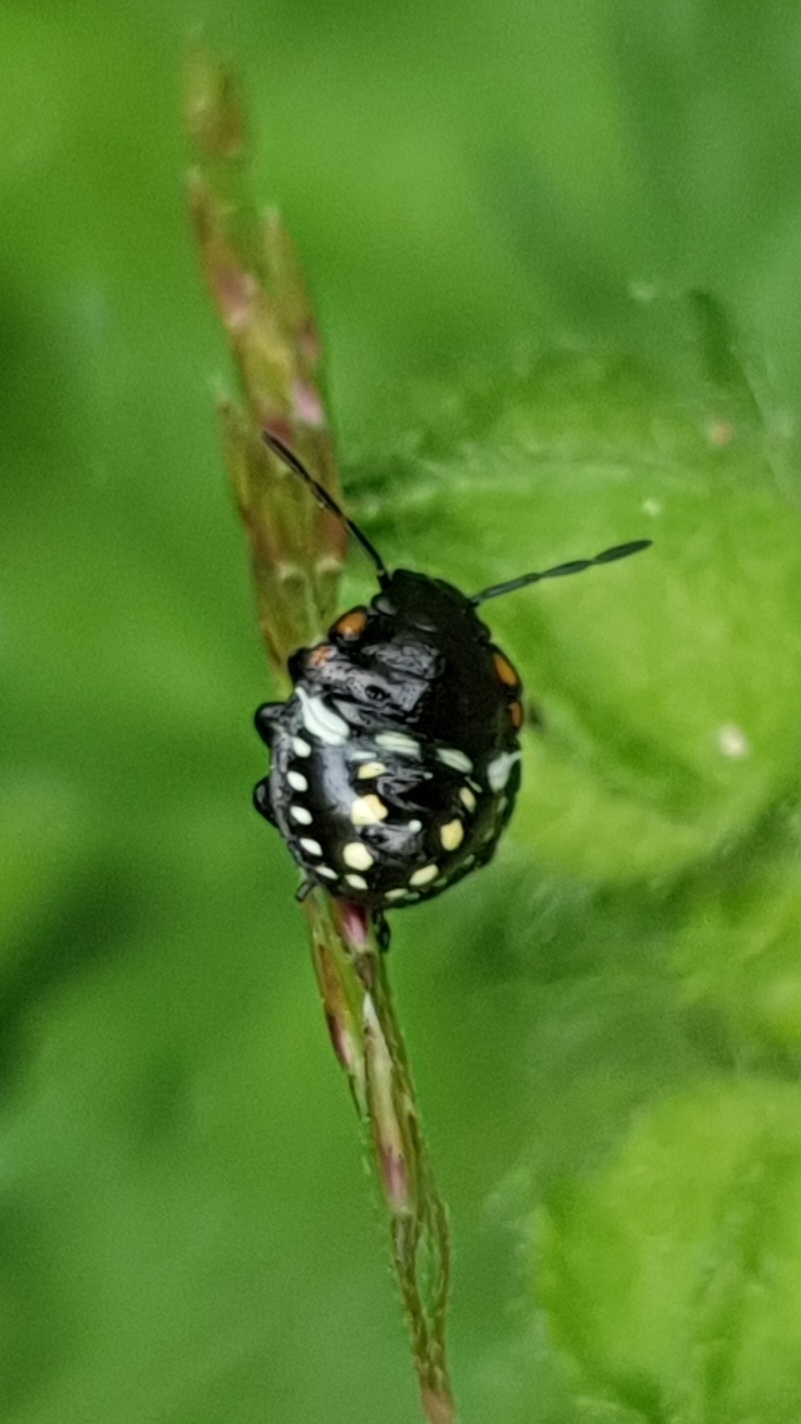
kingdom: Animalia
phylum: Arthropoda
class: Insecta
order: Hemiptera
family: Pentatomidae
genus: Nezara
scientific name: Nezara viridula
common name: Southern green stink bug
